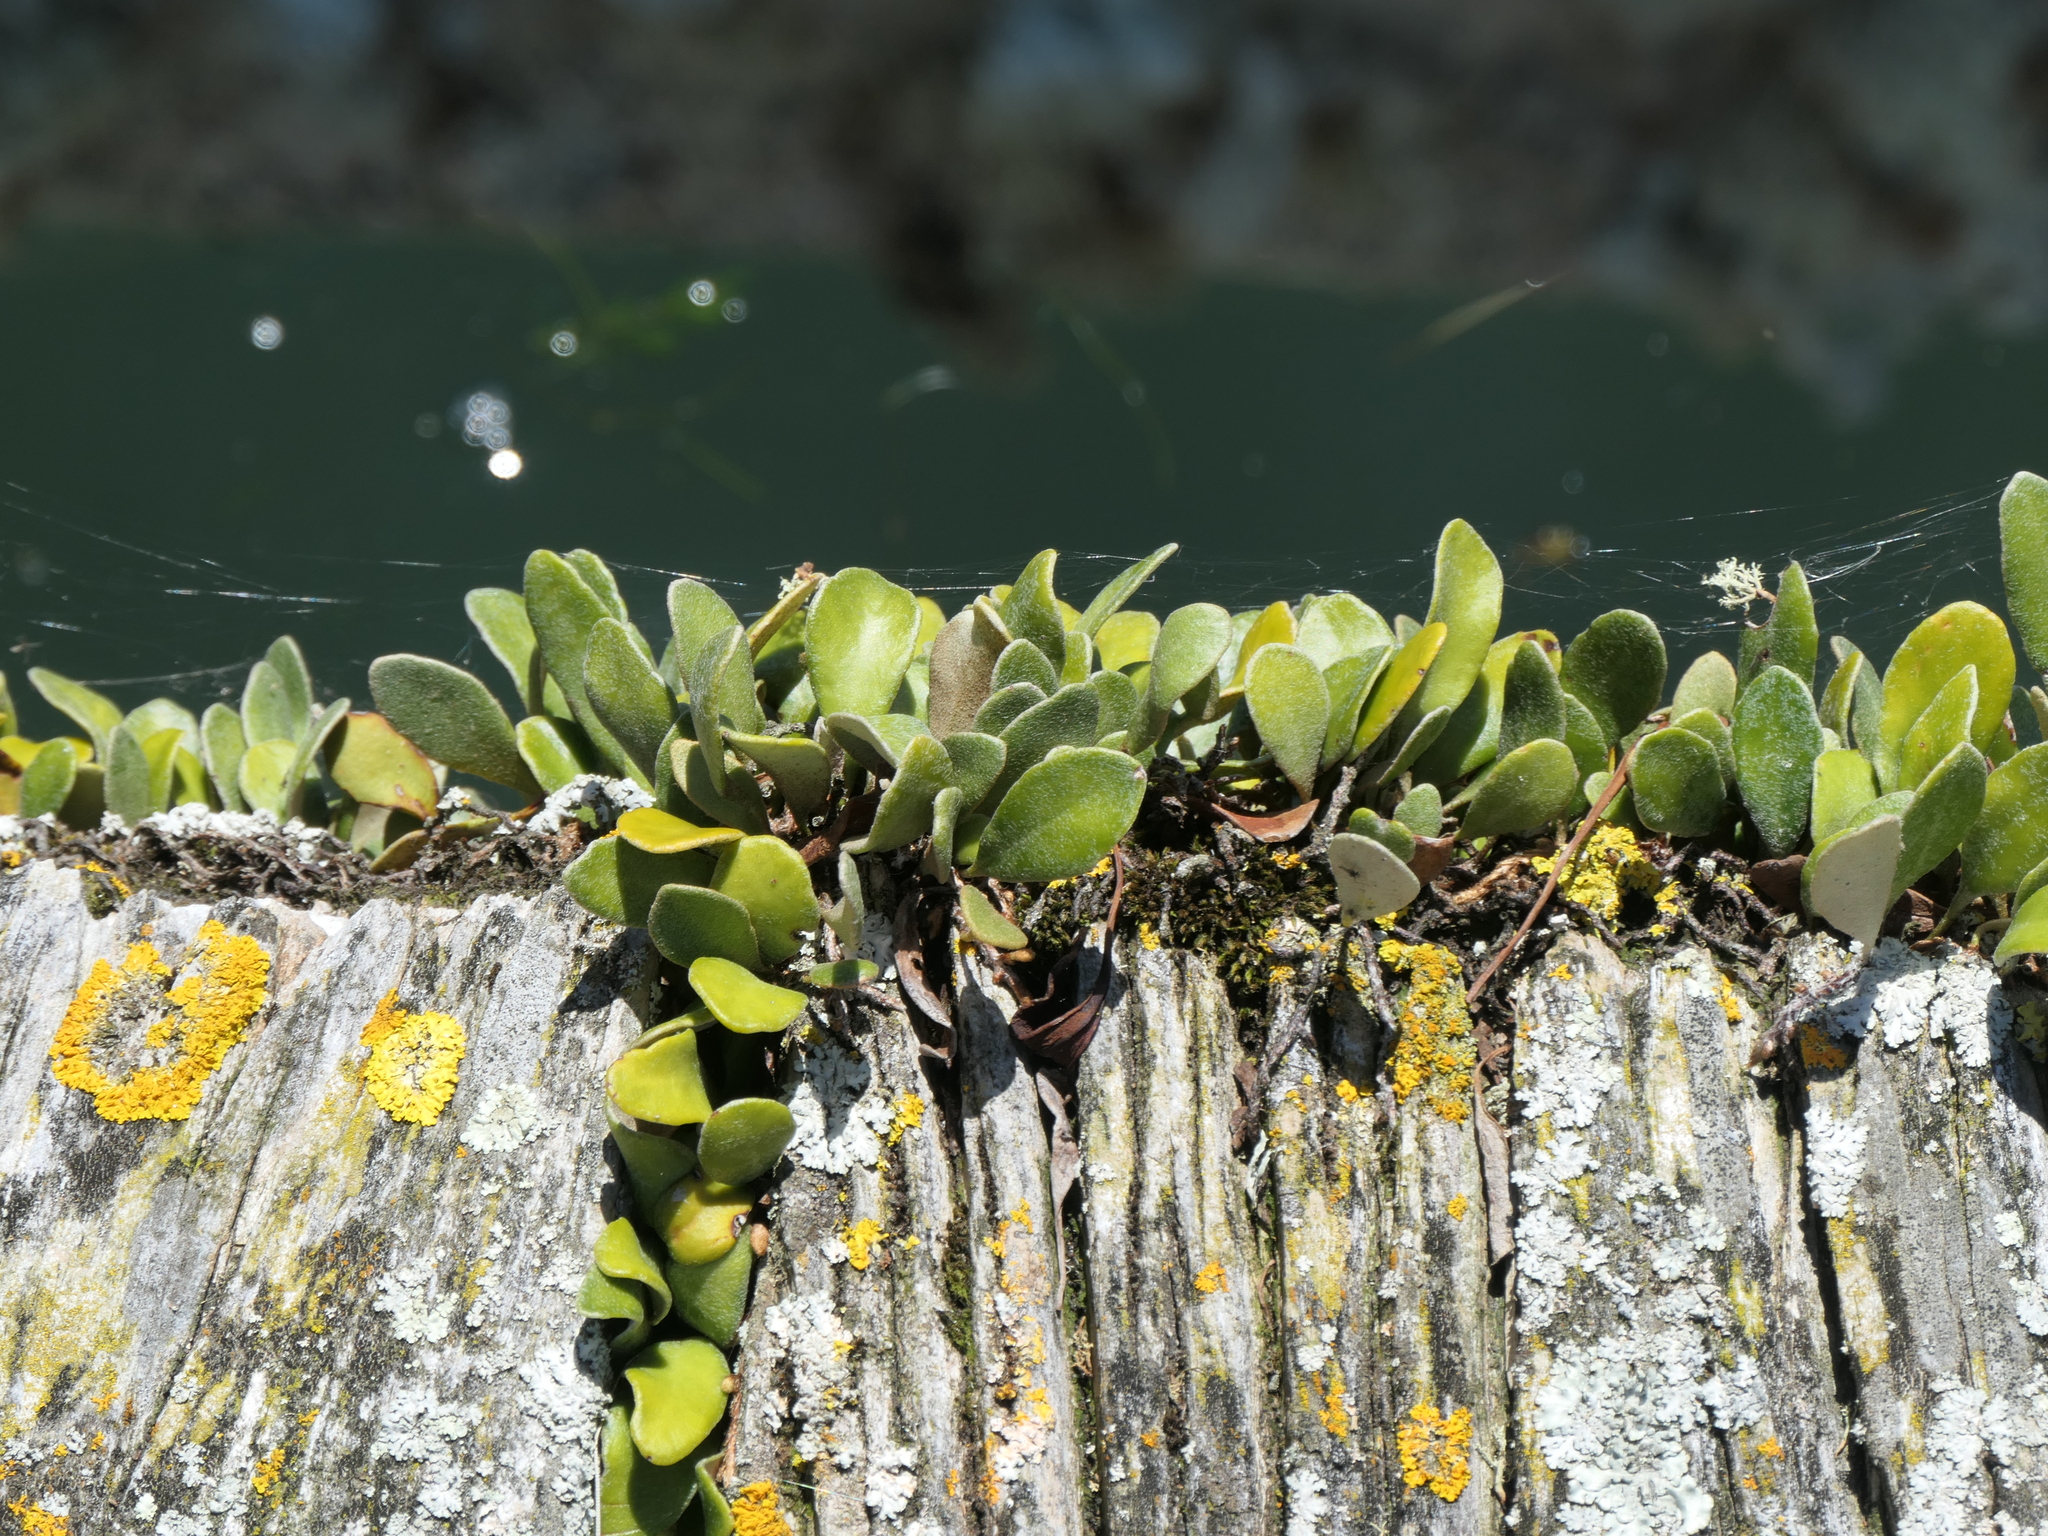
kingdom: Plantae
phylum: Tracheophyta
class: Polypodiopsida
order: Polypodiales
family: Polypodiaceae
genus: Pyrrosia
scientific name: Pyrrosia eleagnifolia
